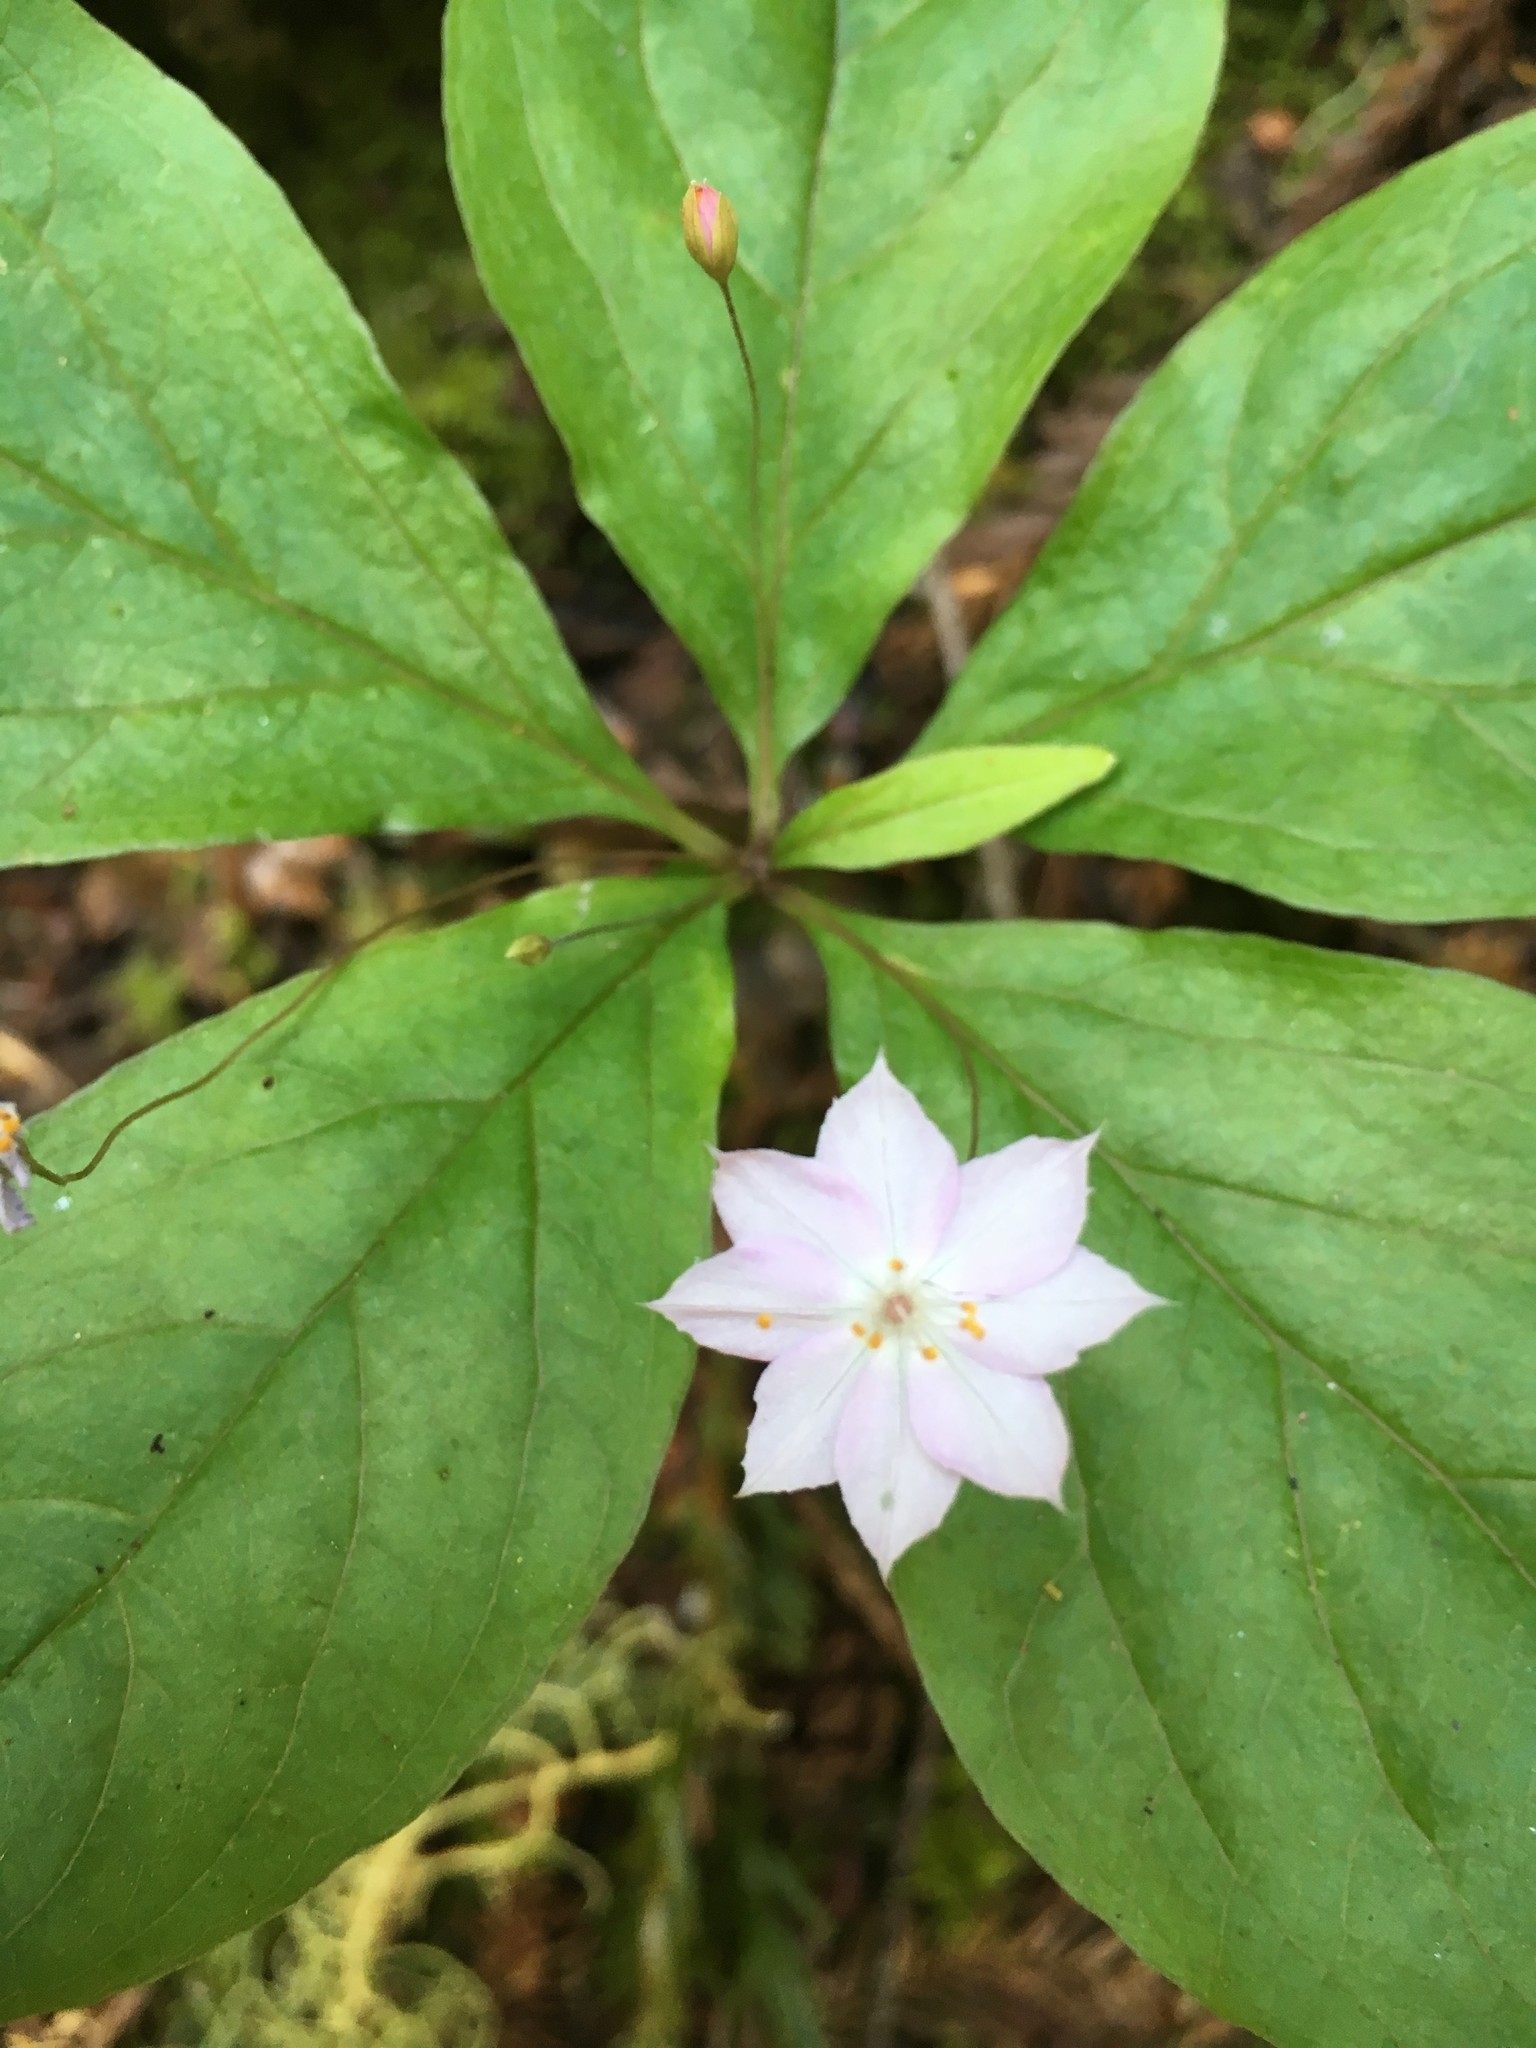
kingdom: Plantae
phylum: Tracheophyta
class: Magnoliopsida
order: Ericales
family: Primulaceae
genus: Lysimachia
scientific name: Lysimachia latifolia
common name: Pacific starflower
